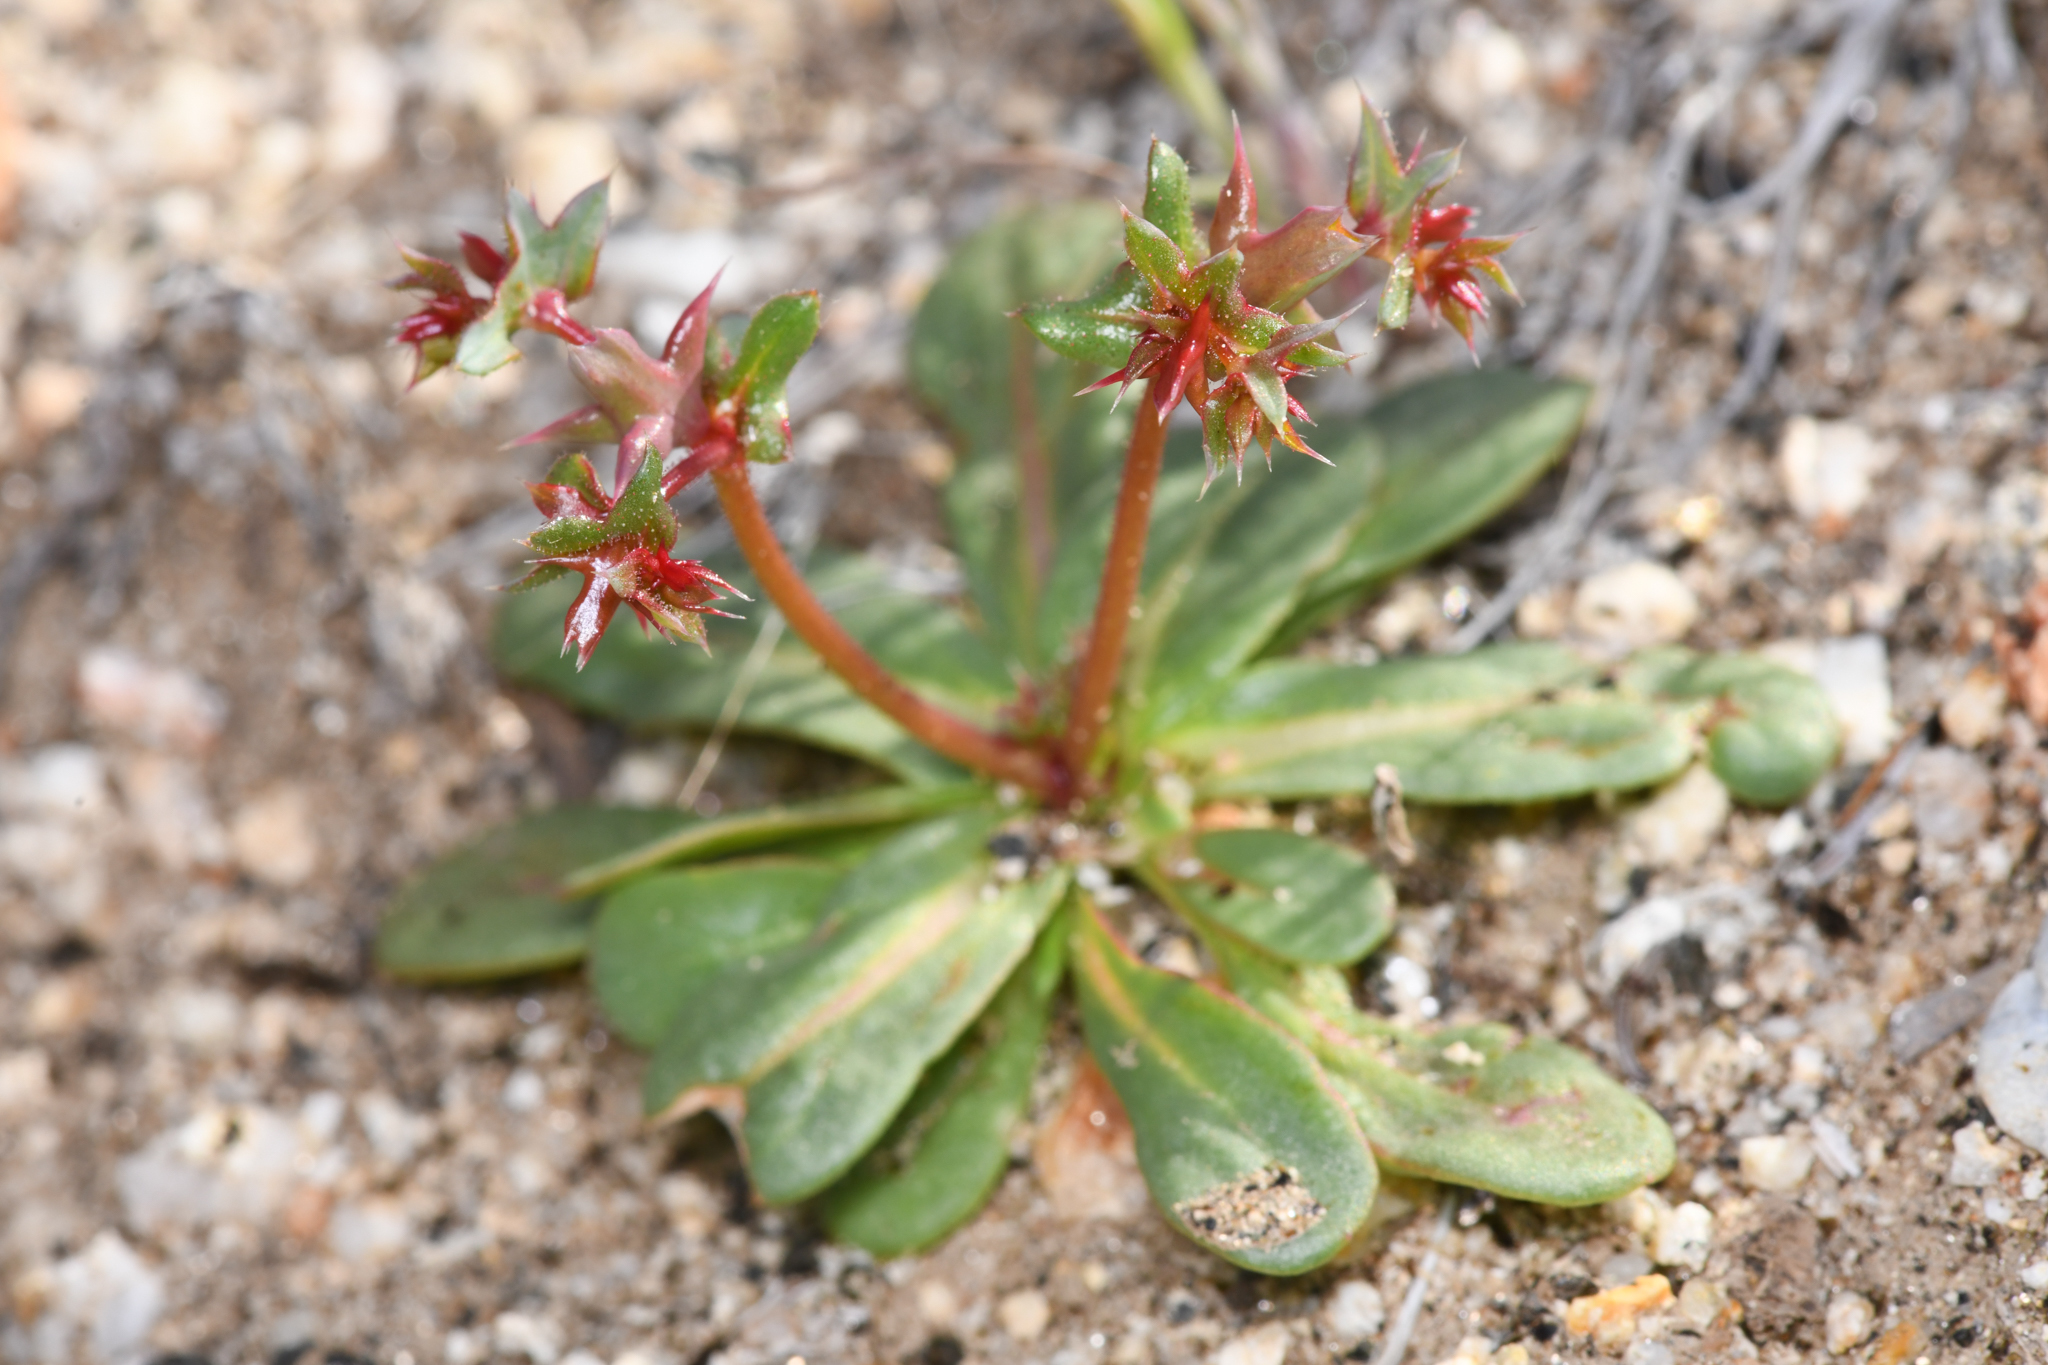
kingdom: Plantae
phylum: Tracheophyta
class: Magnoliopsida
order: Caryophyllales
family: Polygonaceae
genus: Centrostegia
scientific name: Centrostegia thurberi
